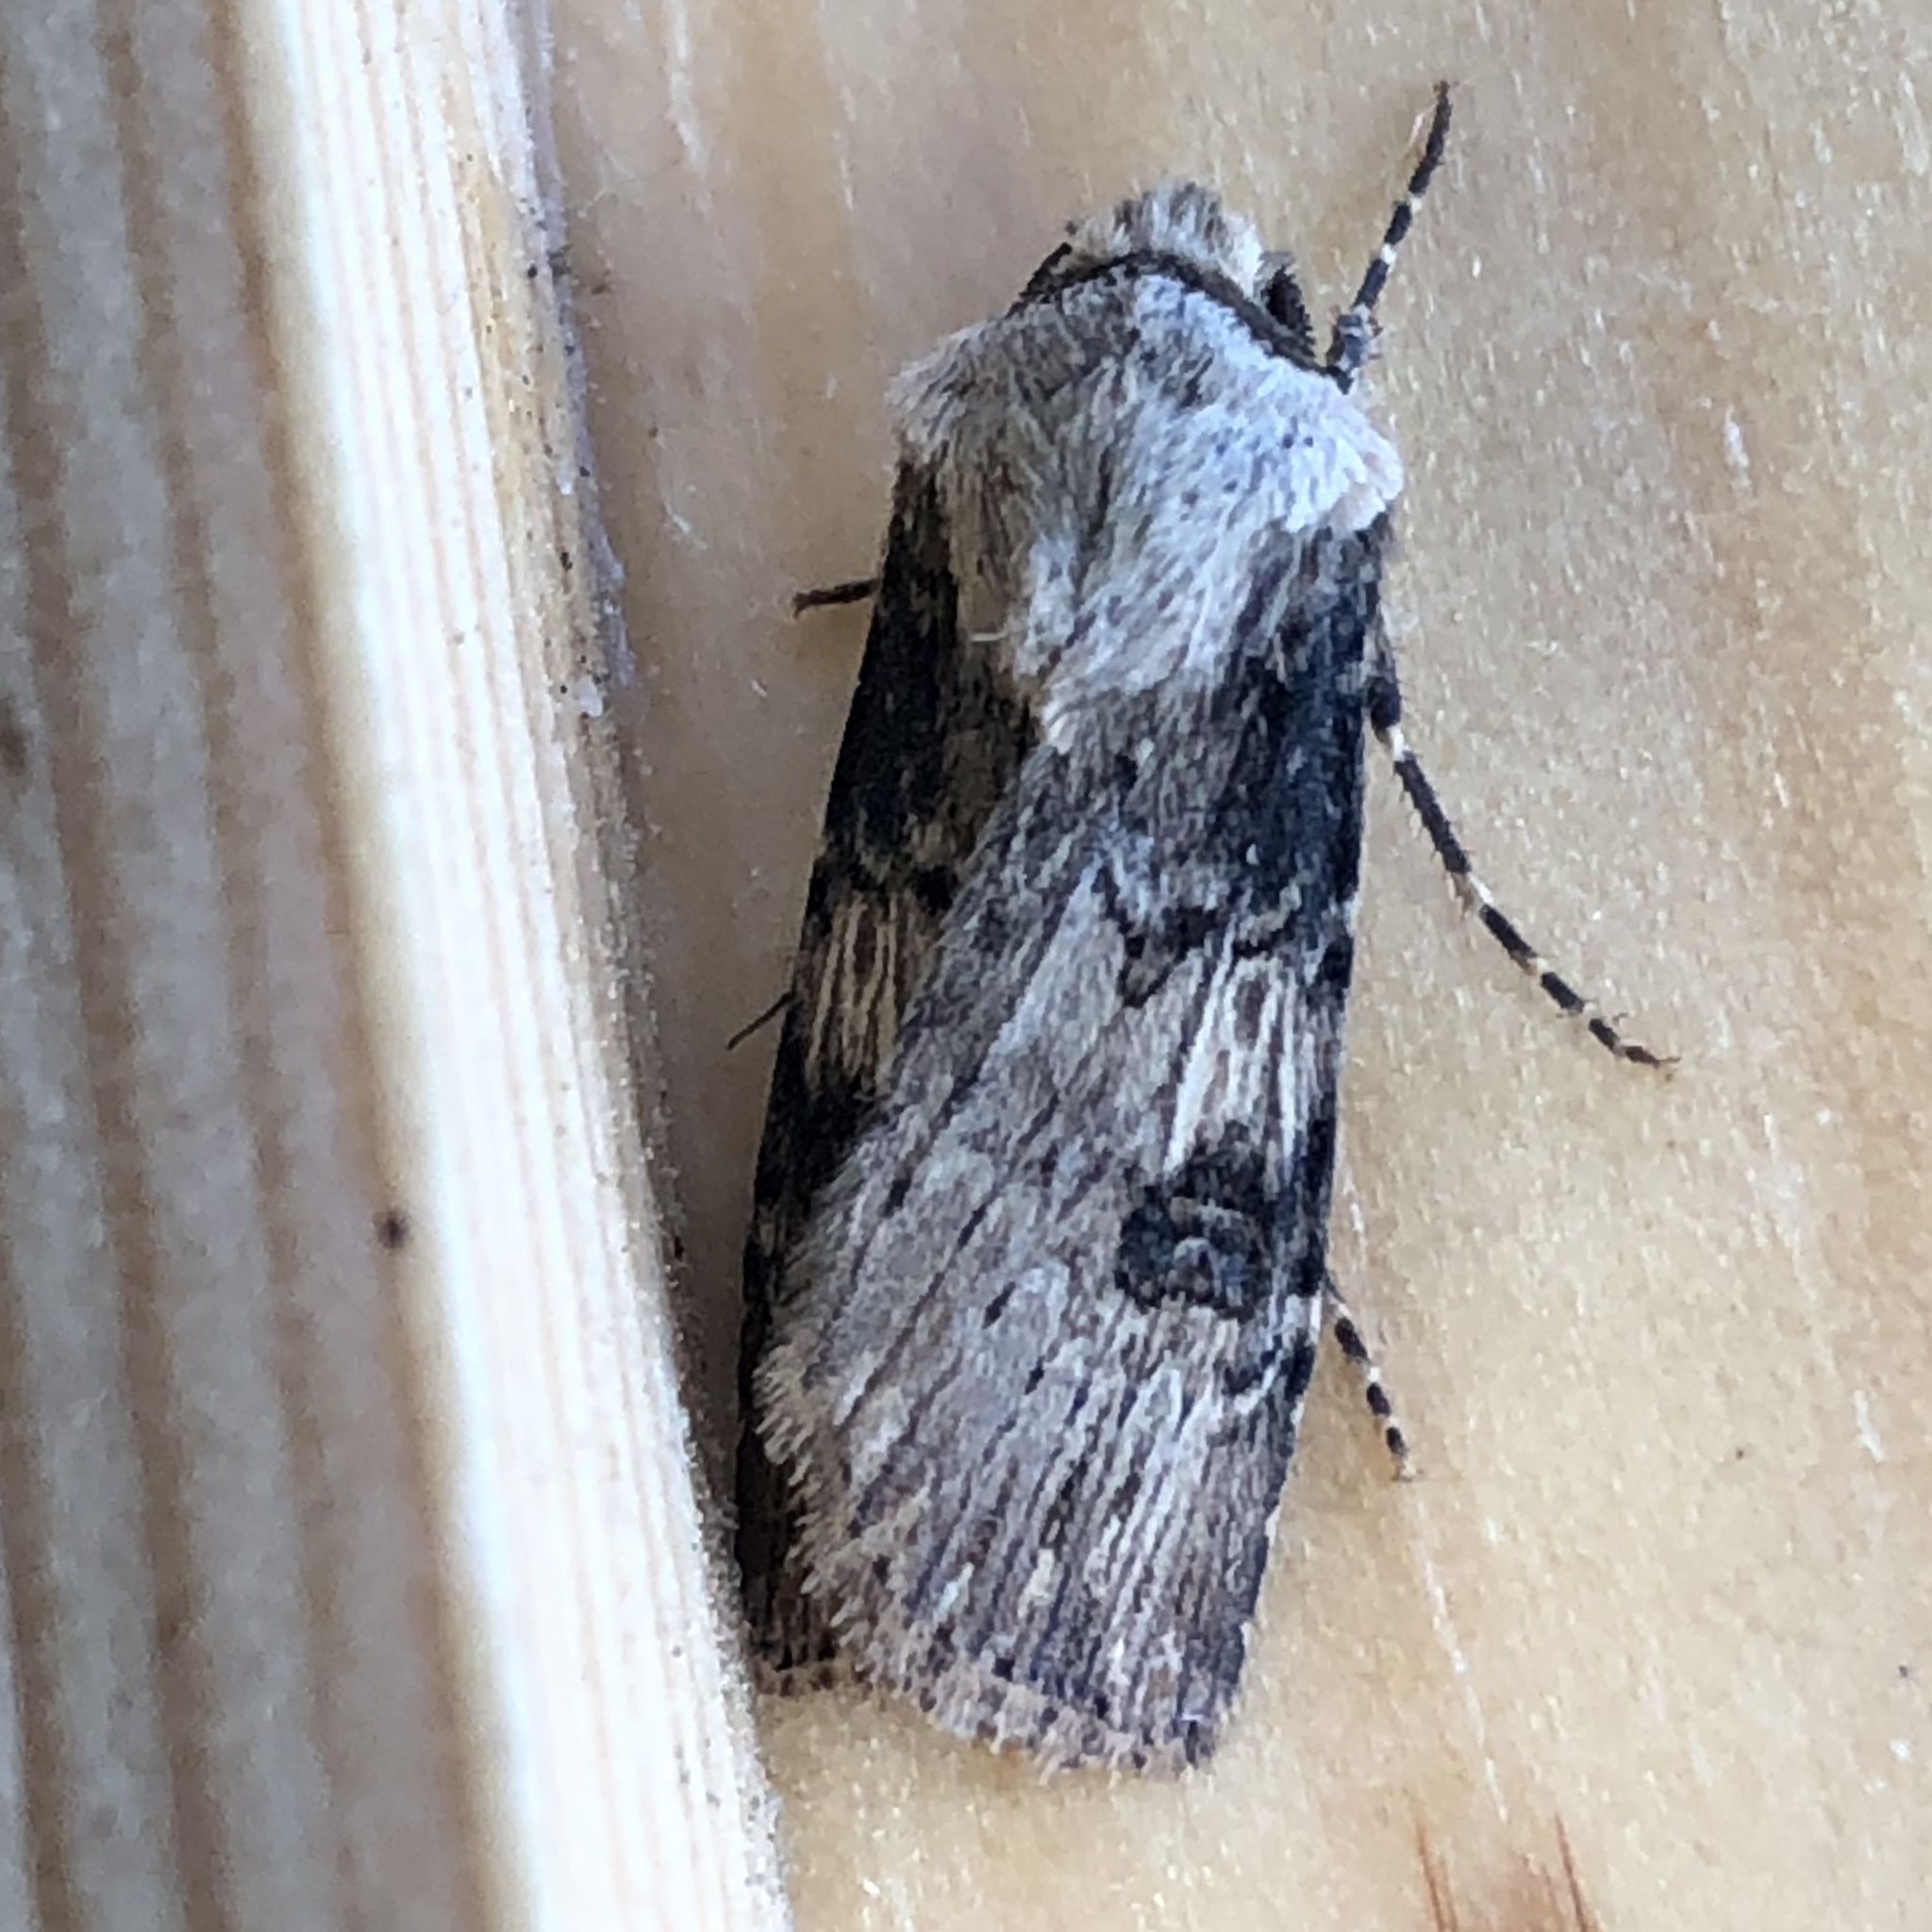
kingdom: Animalia
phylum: Arthropoda
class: Insecta
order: Lepidoptera
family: Noctuidae
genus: Agrotis
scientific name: Agrotis puta
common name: Shuttle-shaped dart
